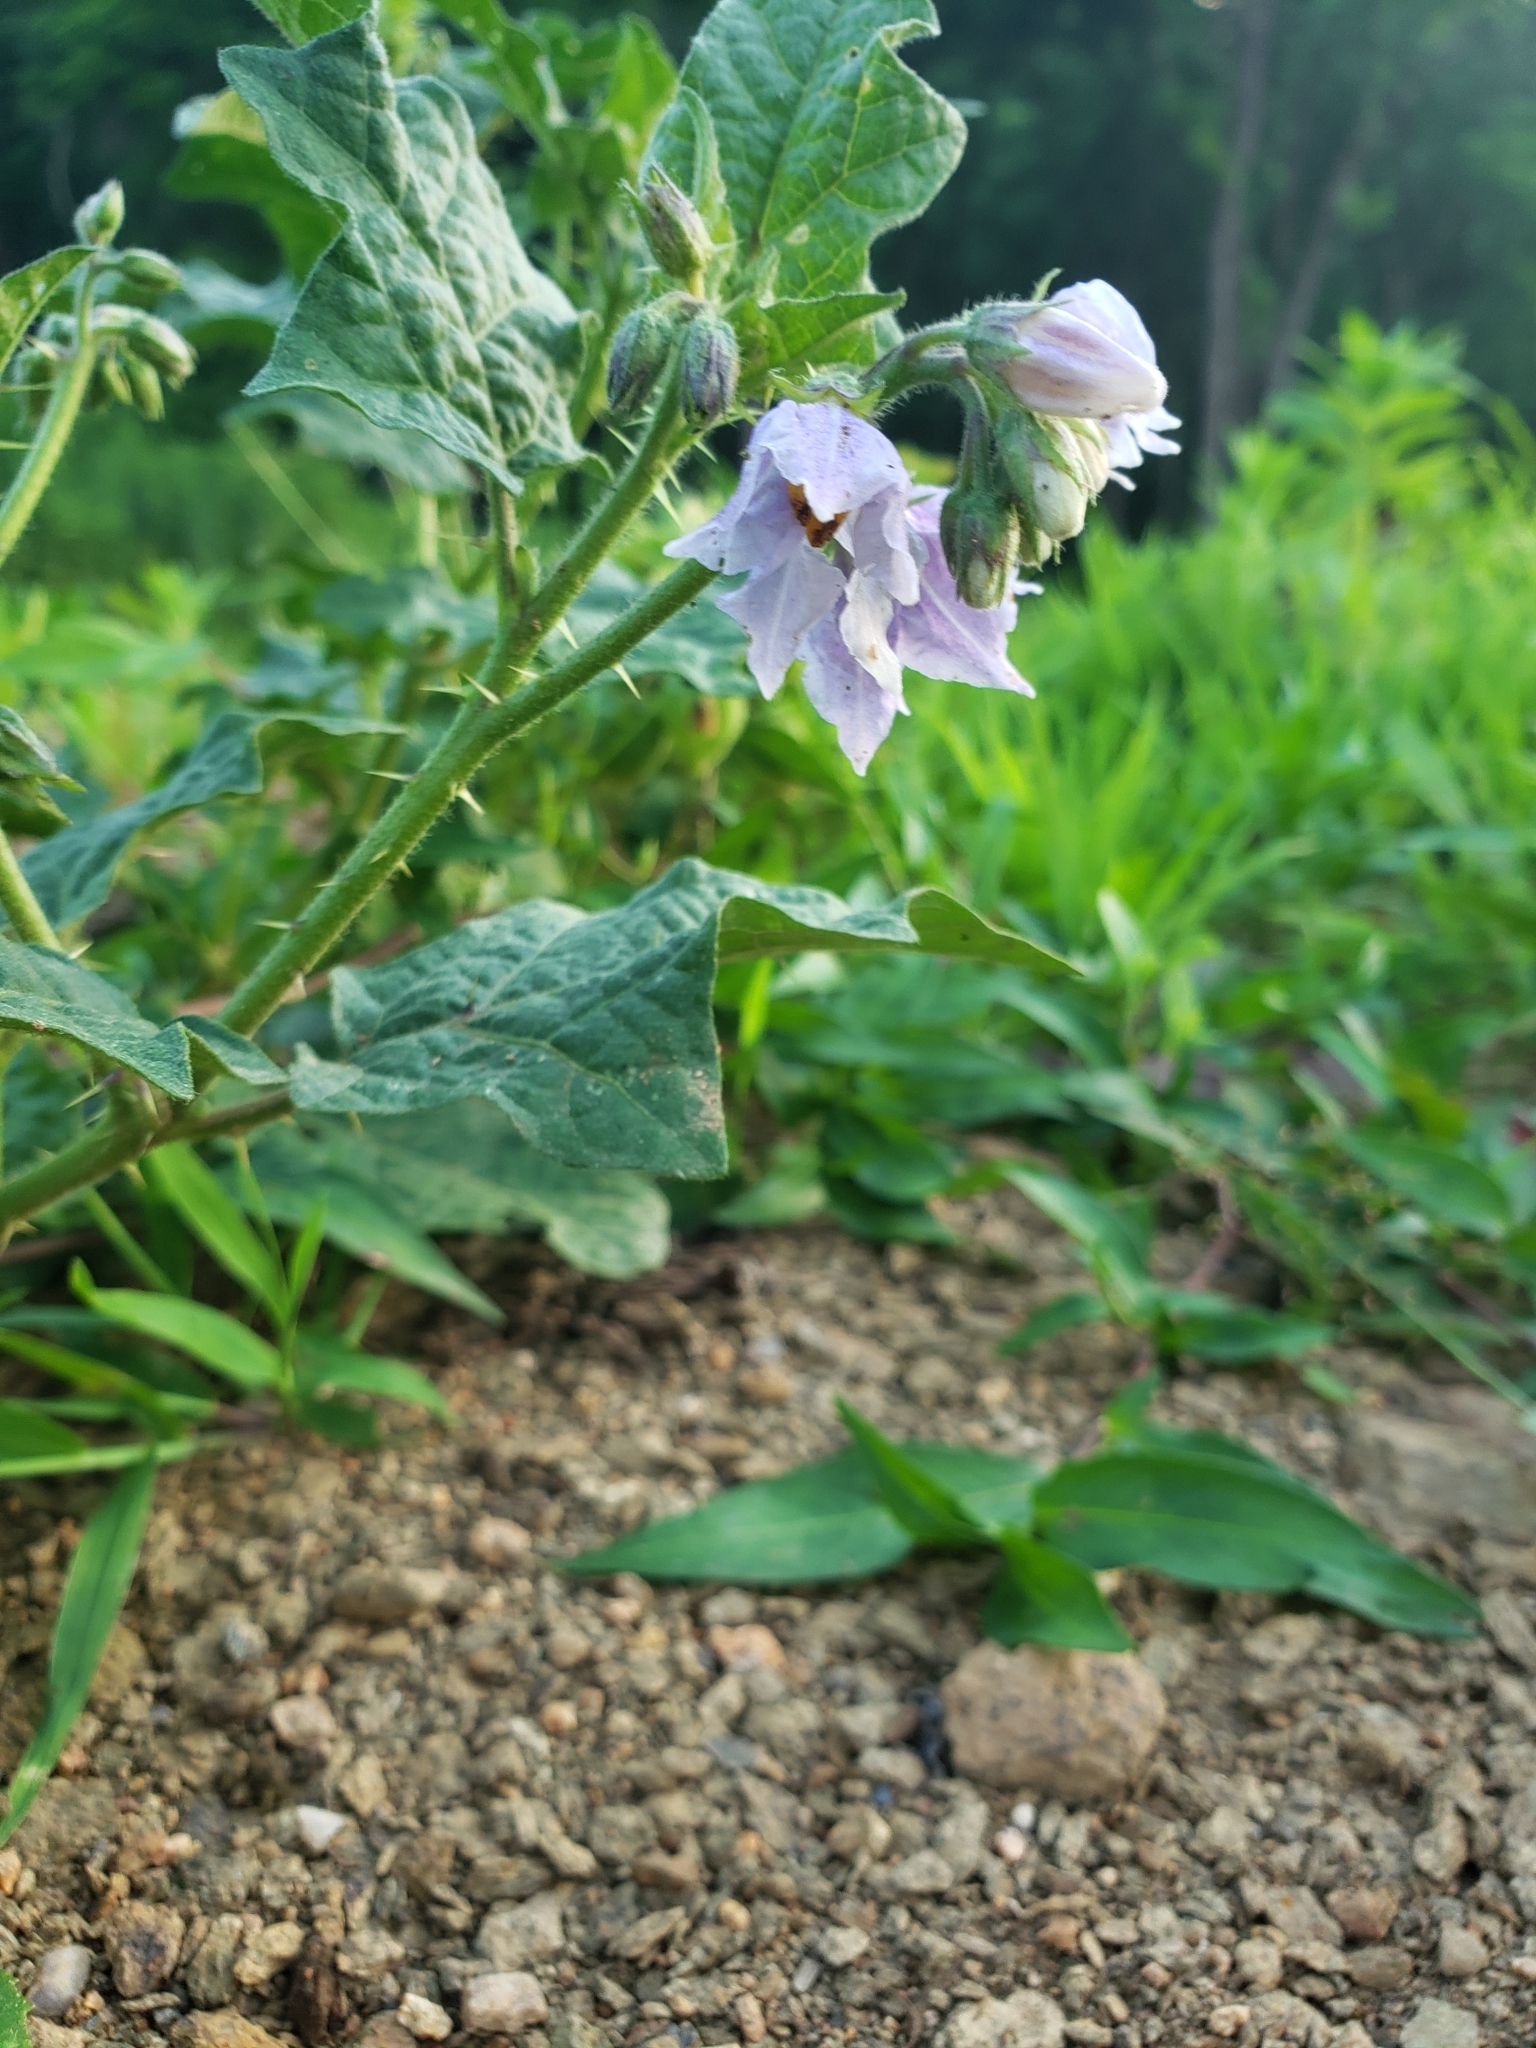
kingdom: Plantae
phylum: Tracheophyta
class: Magnoliopsida
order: Solanales
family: Solanaceae
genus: Solanum
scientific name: Solanum carolinense
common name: Horse-nettle
